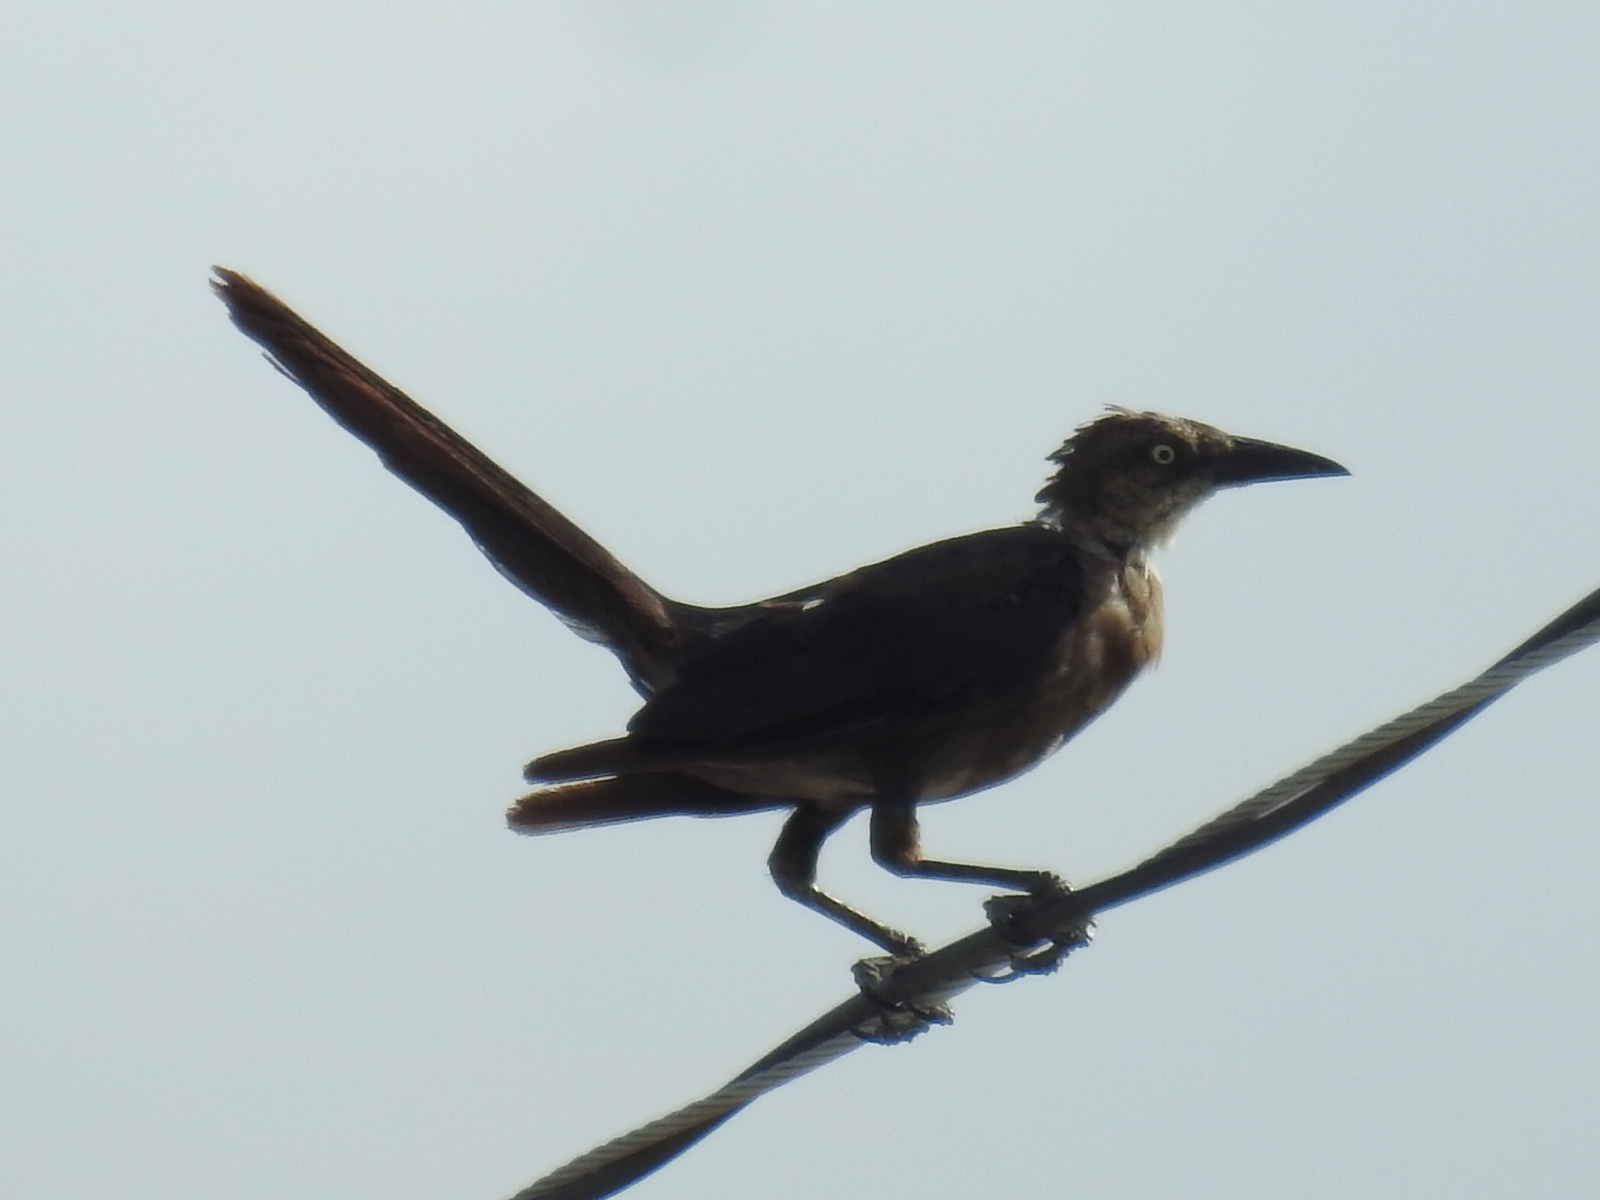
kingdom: Animalia
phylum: Chordata
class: Aves
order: Passeriformes
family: Icteridae
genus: Quiscalus
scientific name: Quiscalus mexicanus
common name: Great-tailed grackle
